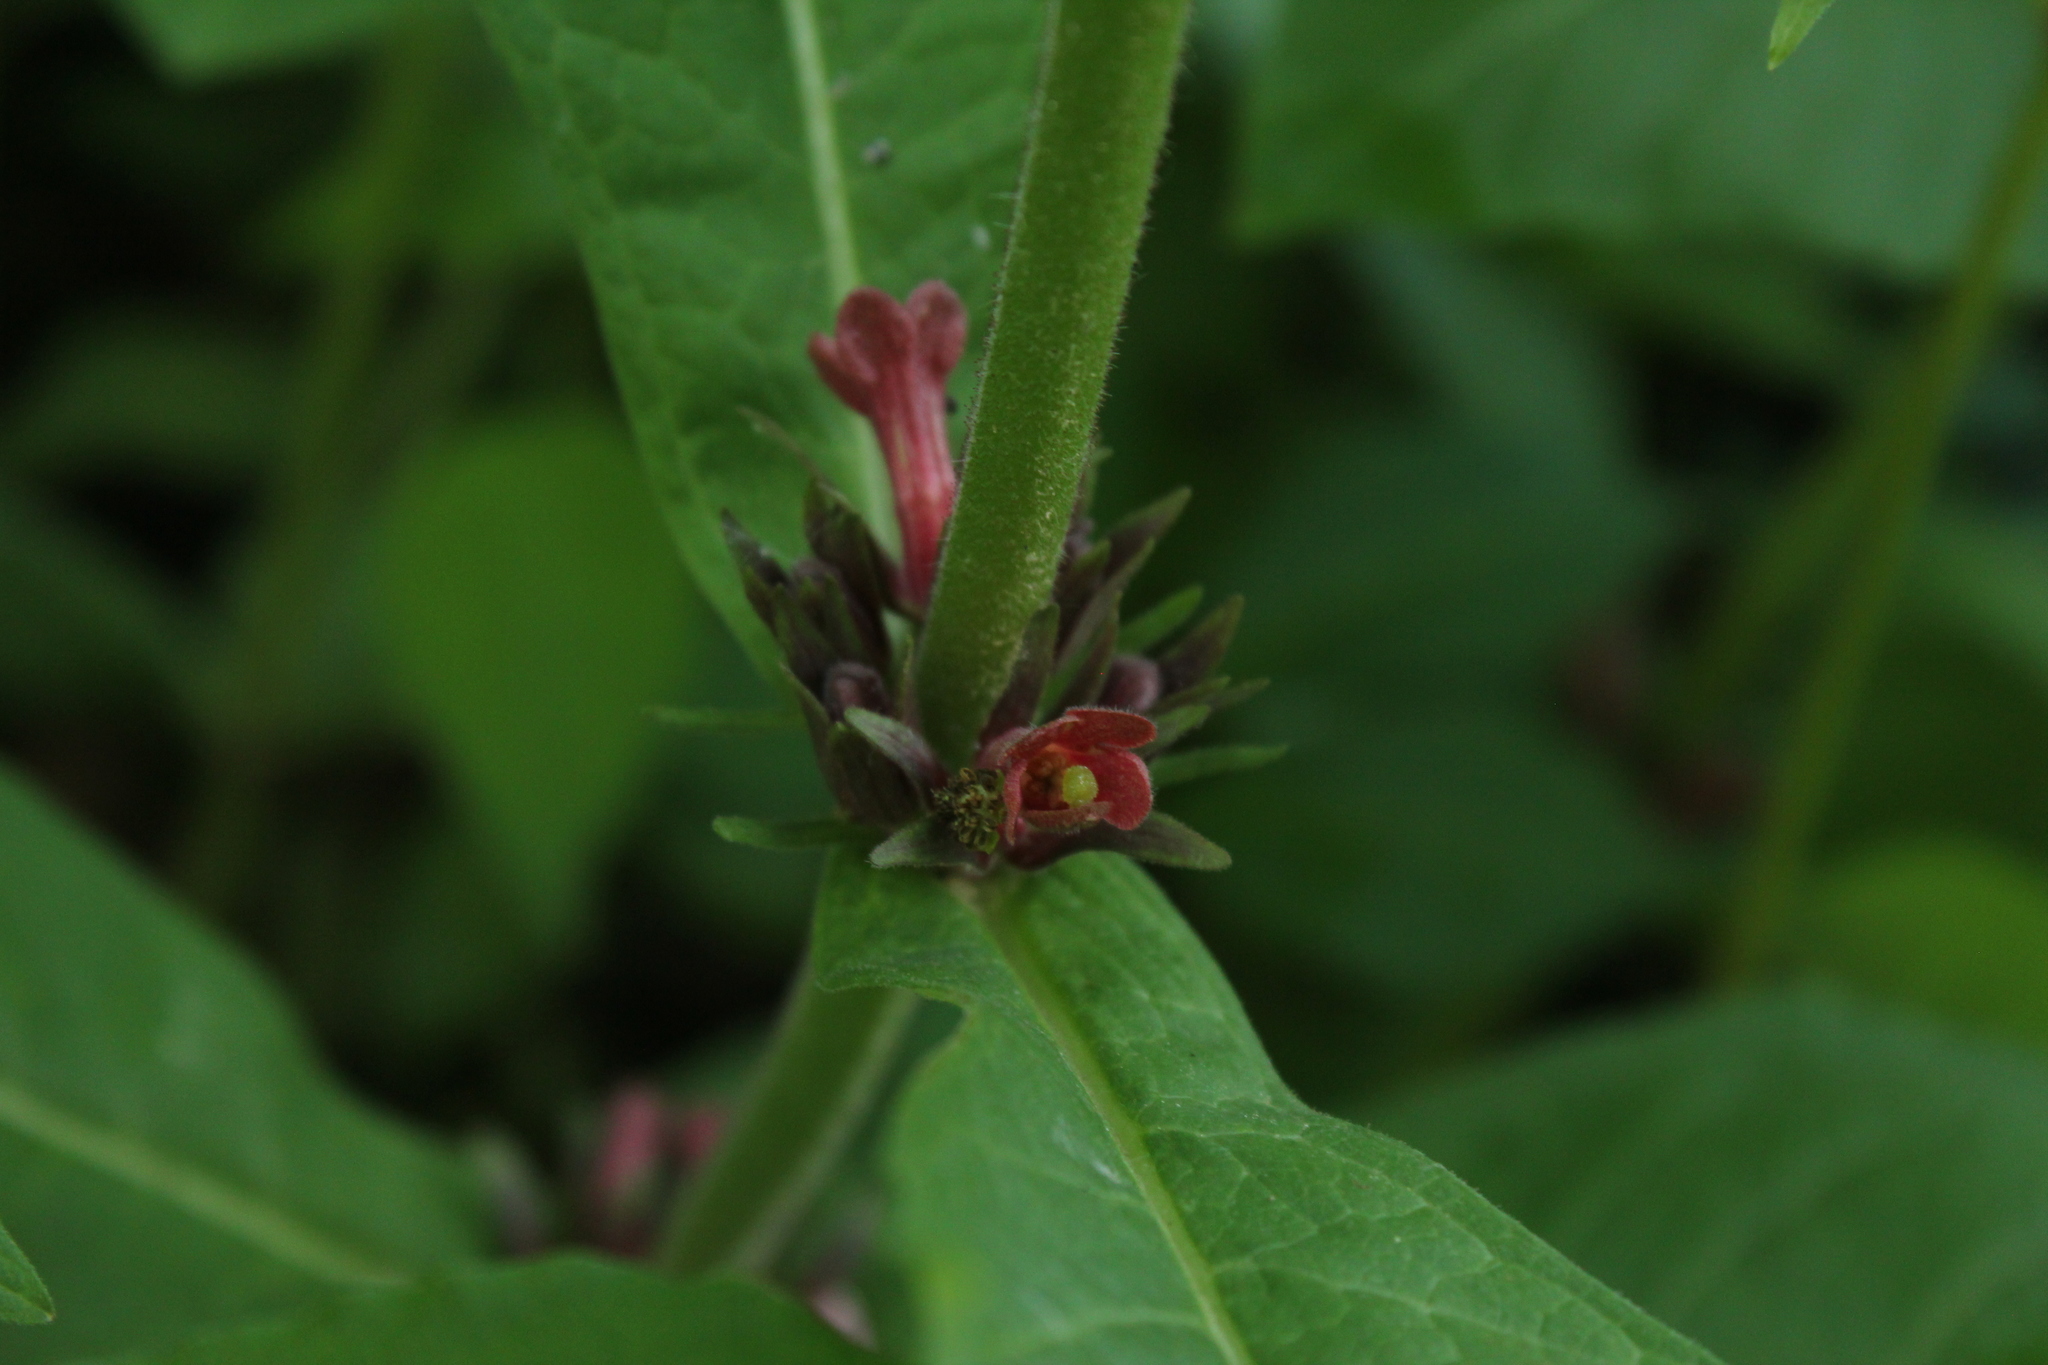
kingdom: Plantae
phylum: Tracheophyta
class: Magnoliopsida
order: Dipsacales
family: Caprifoliaceae
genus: Triosteum
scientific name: Triosteum aurantiacum
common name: Coffee tinker's-weed
